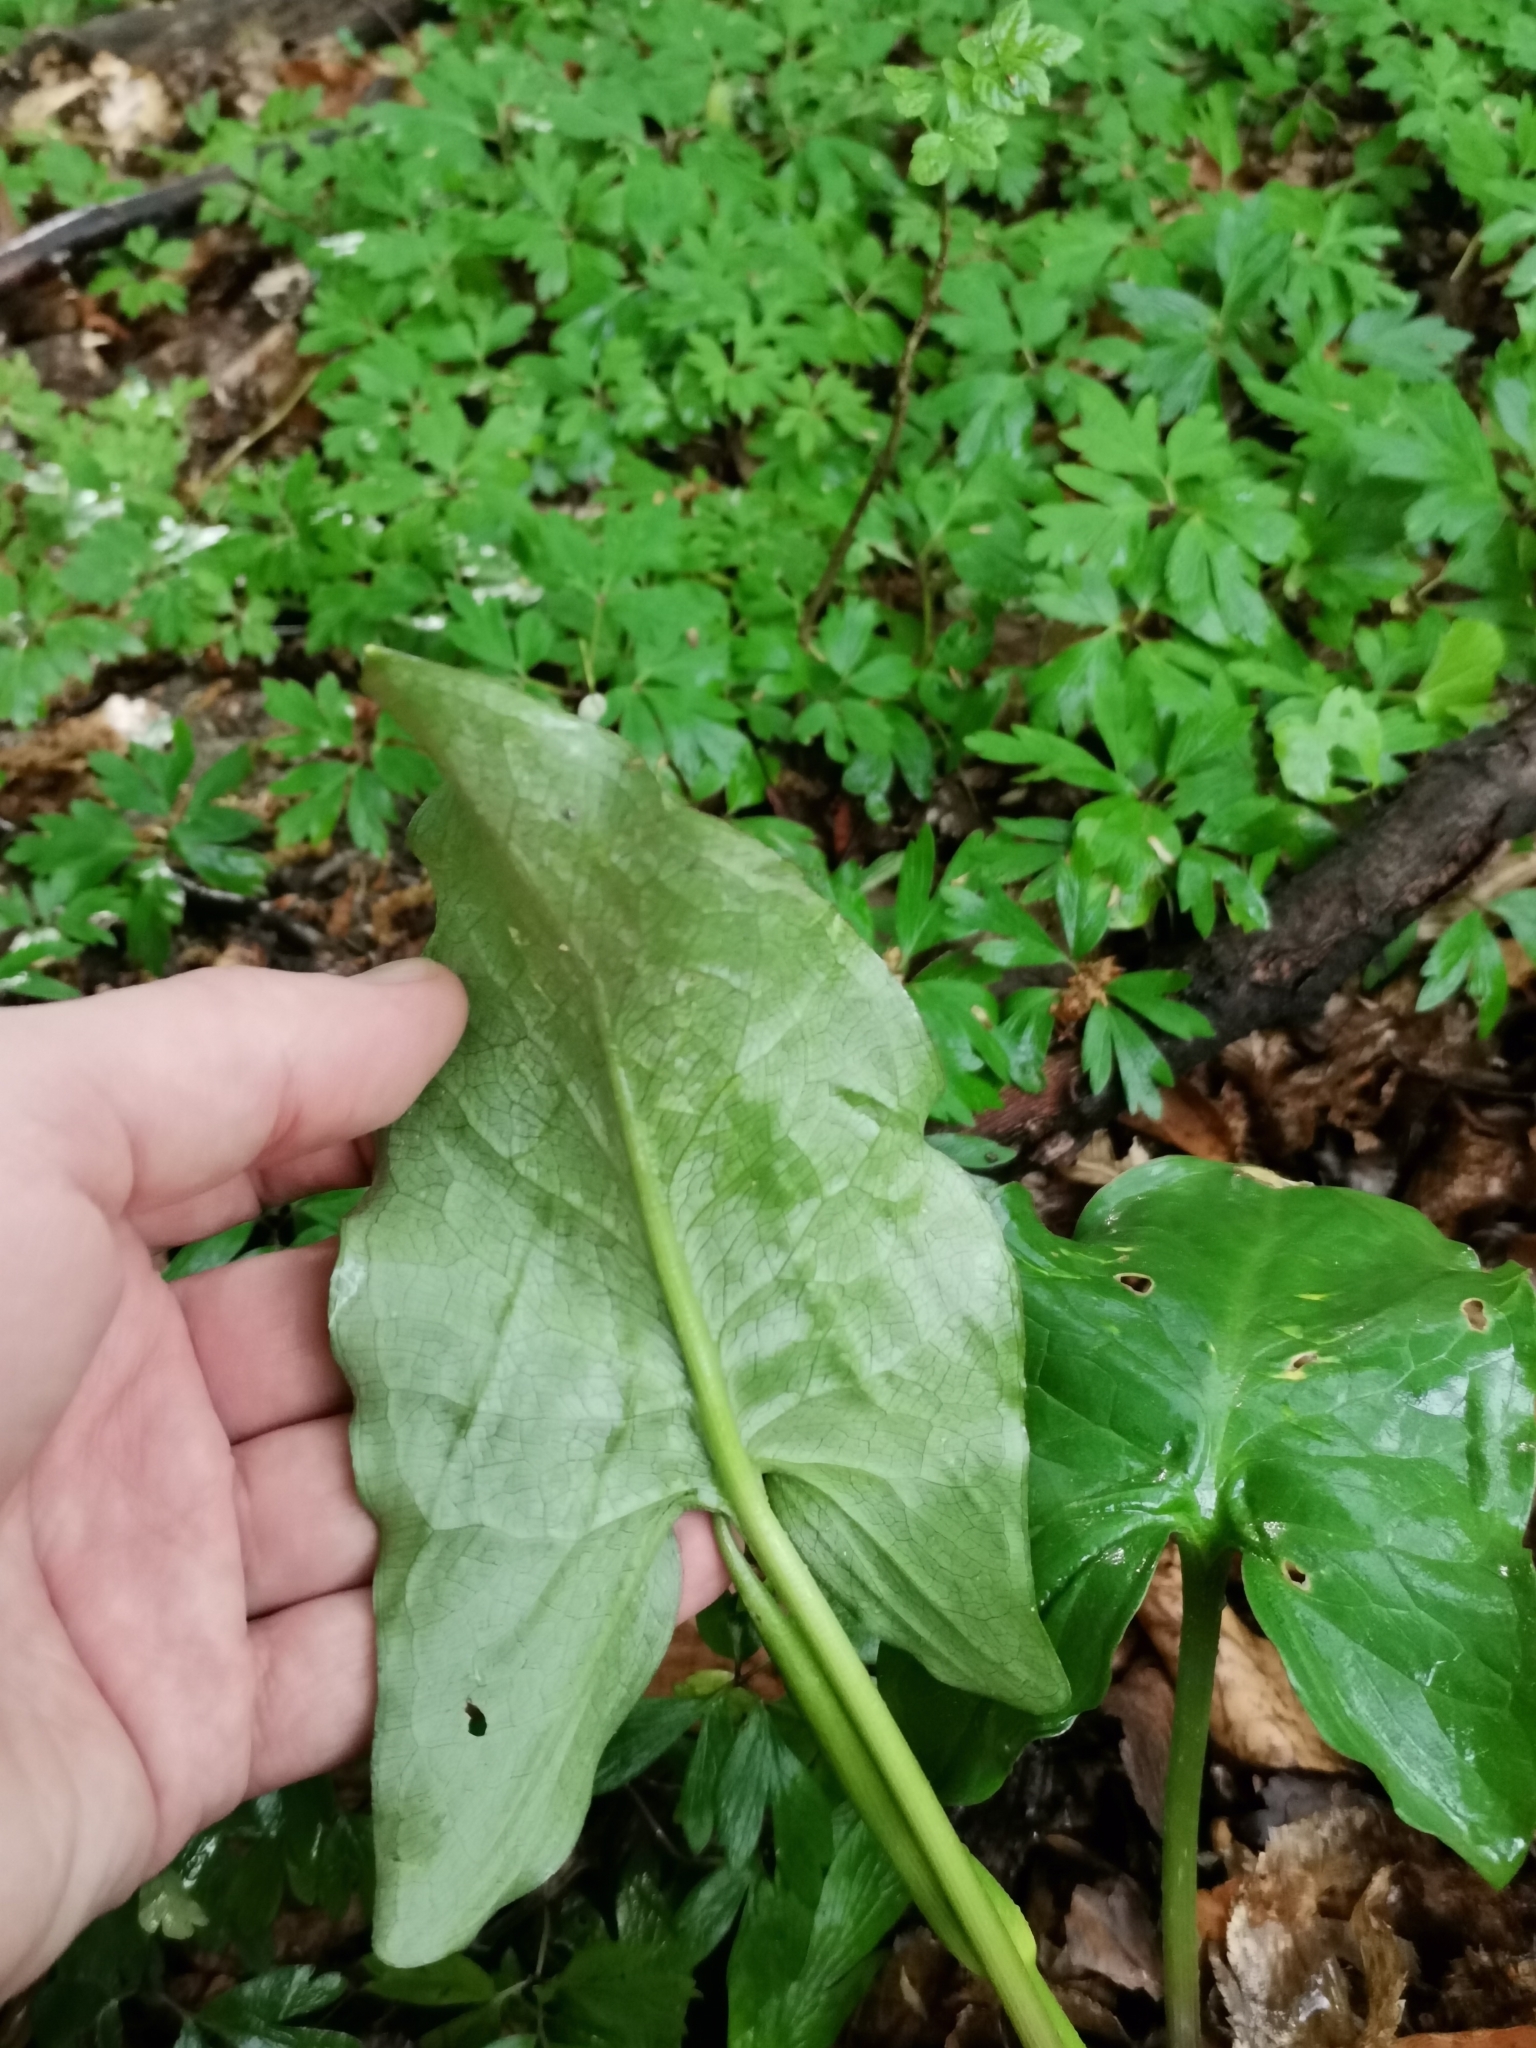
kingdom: Plantae
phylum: Tracheophyta
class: Liliopsida
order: Alismatales
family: Araceae
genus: Arum
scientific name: Arum cylindraceum
